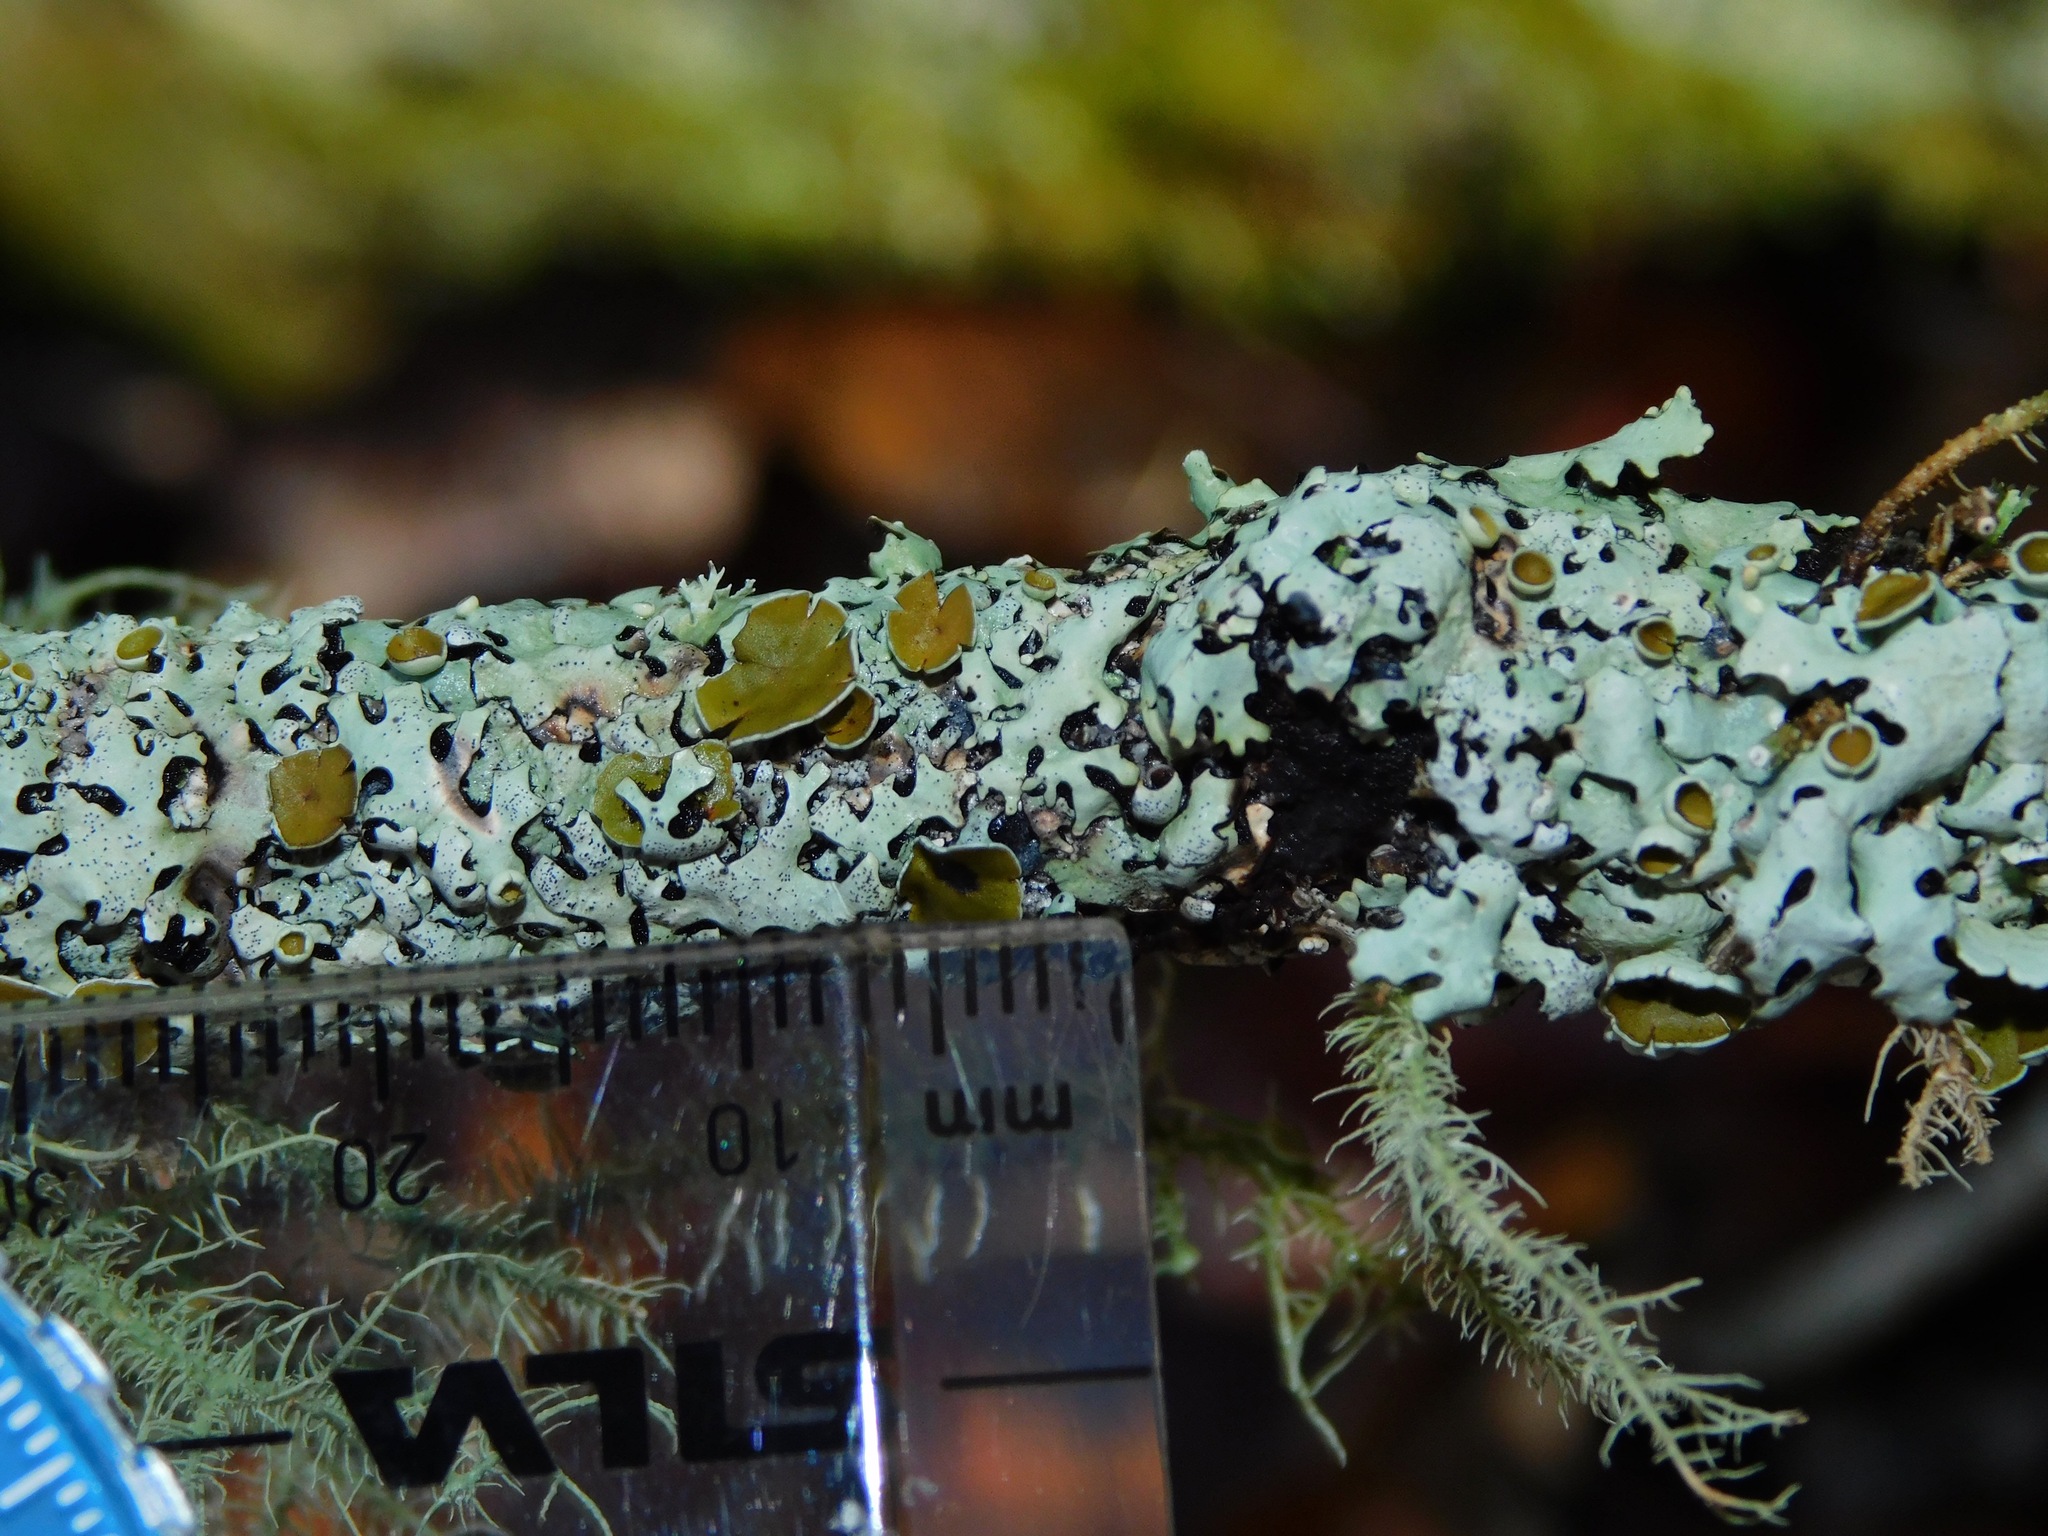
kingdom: Fungi
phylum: Ascomycota
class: Lecanoromycetes
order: Lecanorales
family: Parmeliaceae
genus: Hypotrachyna
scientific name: Hypotrachyna livida
